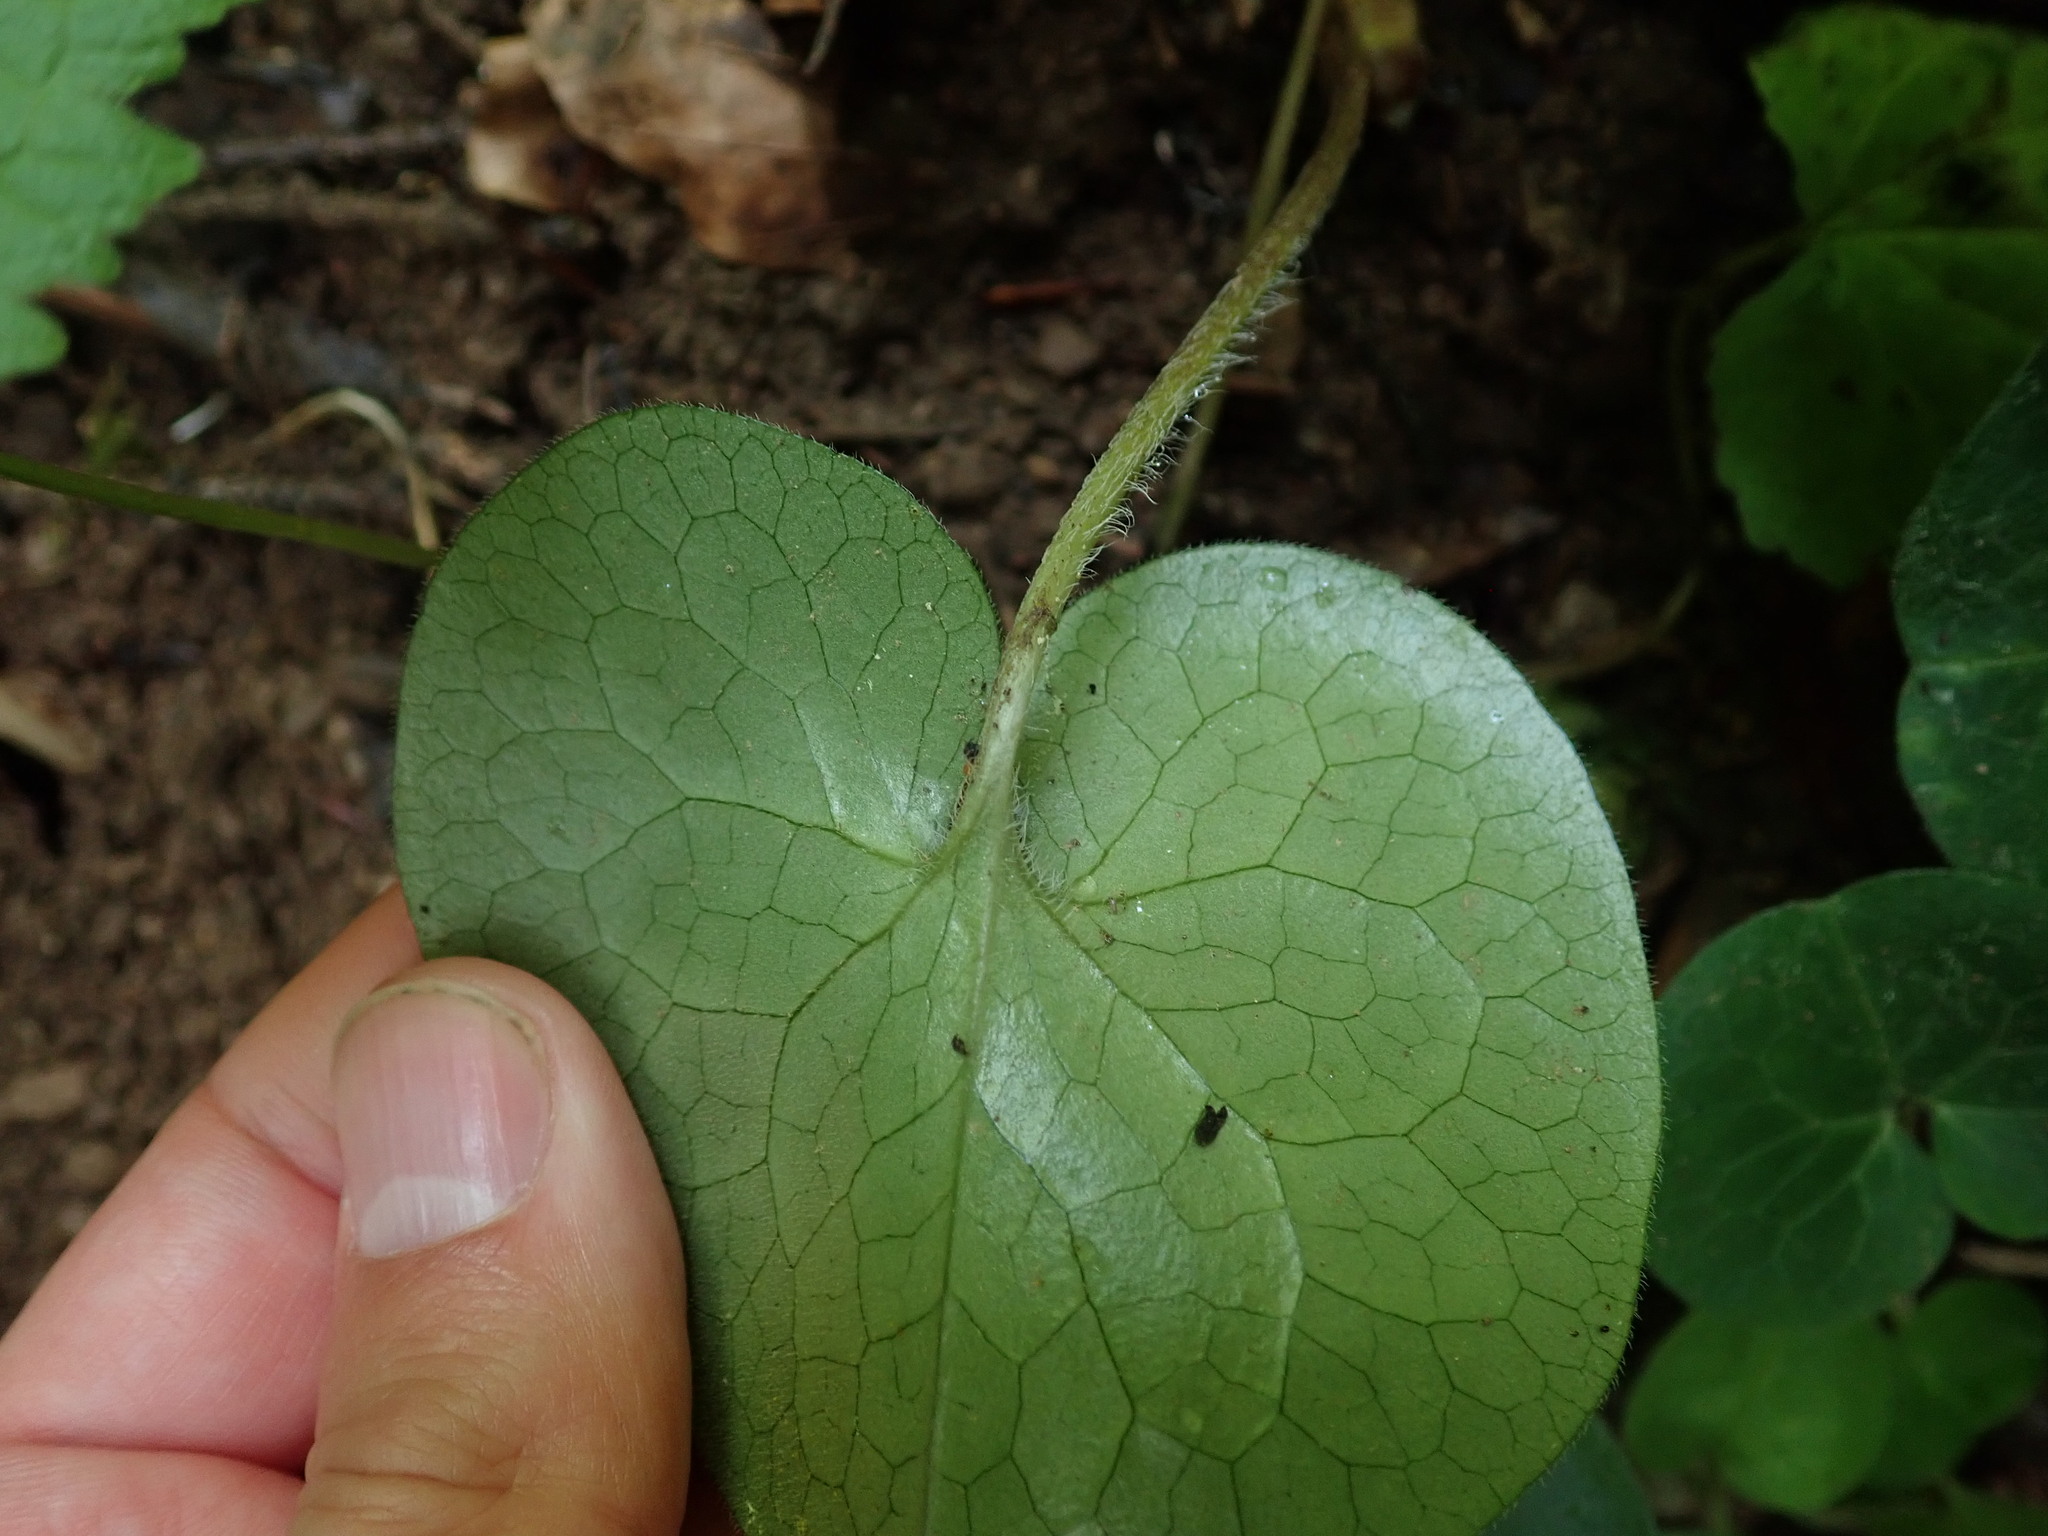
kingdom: Plantae
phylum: Tracheophyta
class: Magnoliopsida
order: Piperales
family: Aristolochiaceae
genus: Asarum
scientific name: Asarum europaeum
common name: Asarabacca
